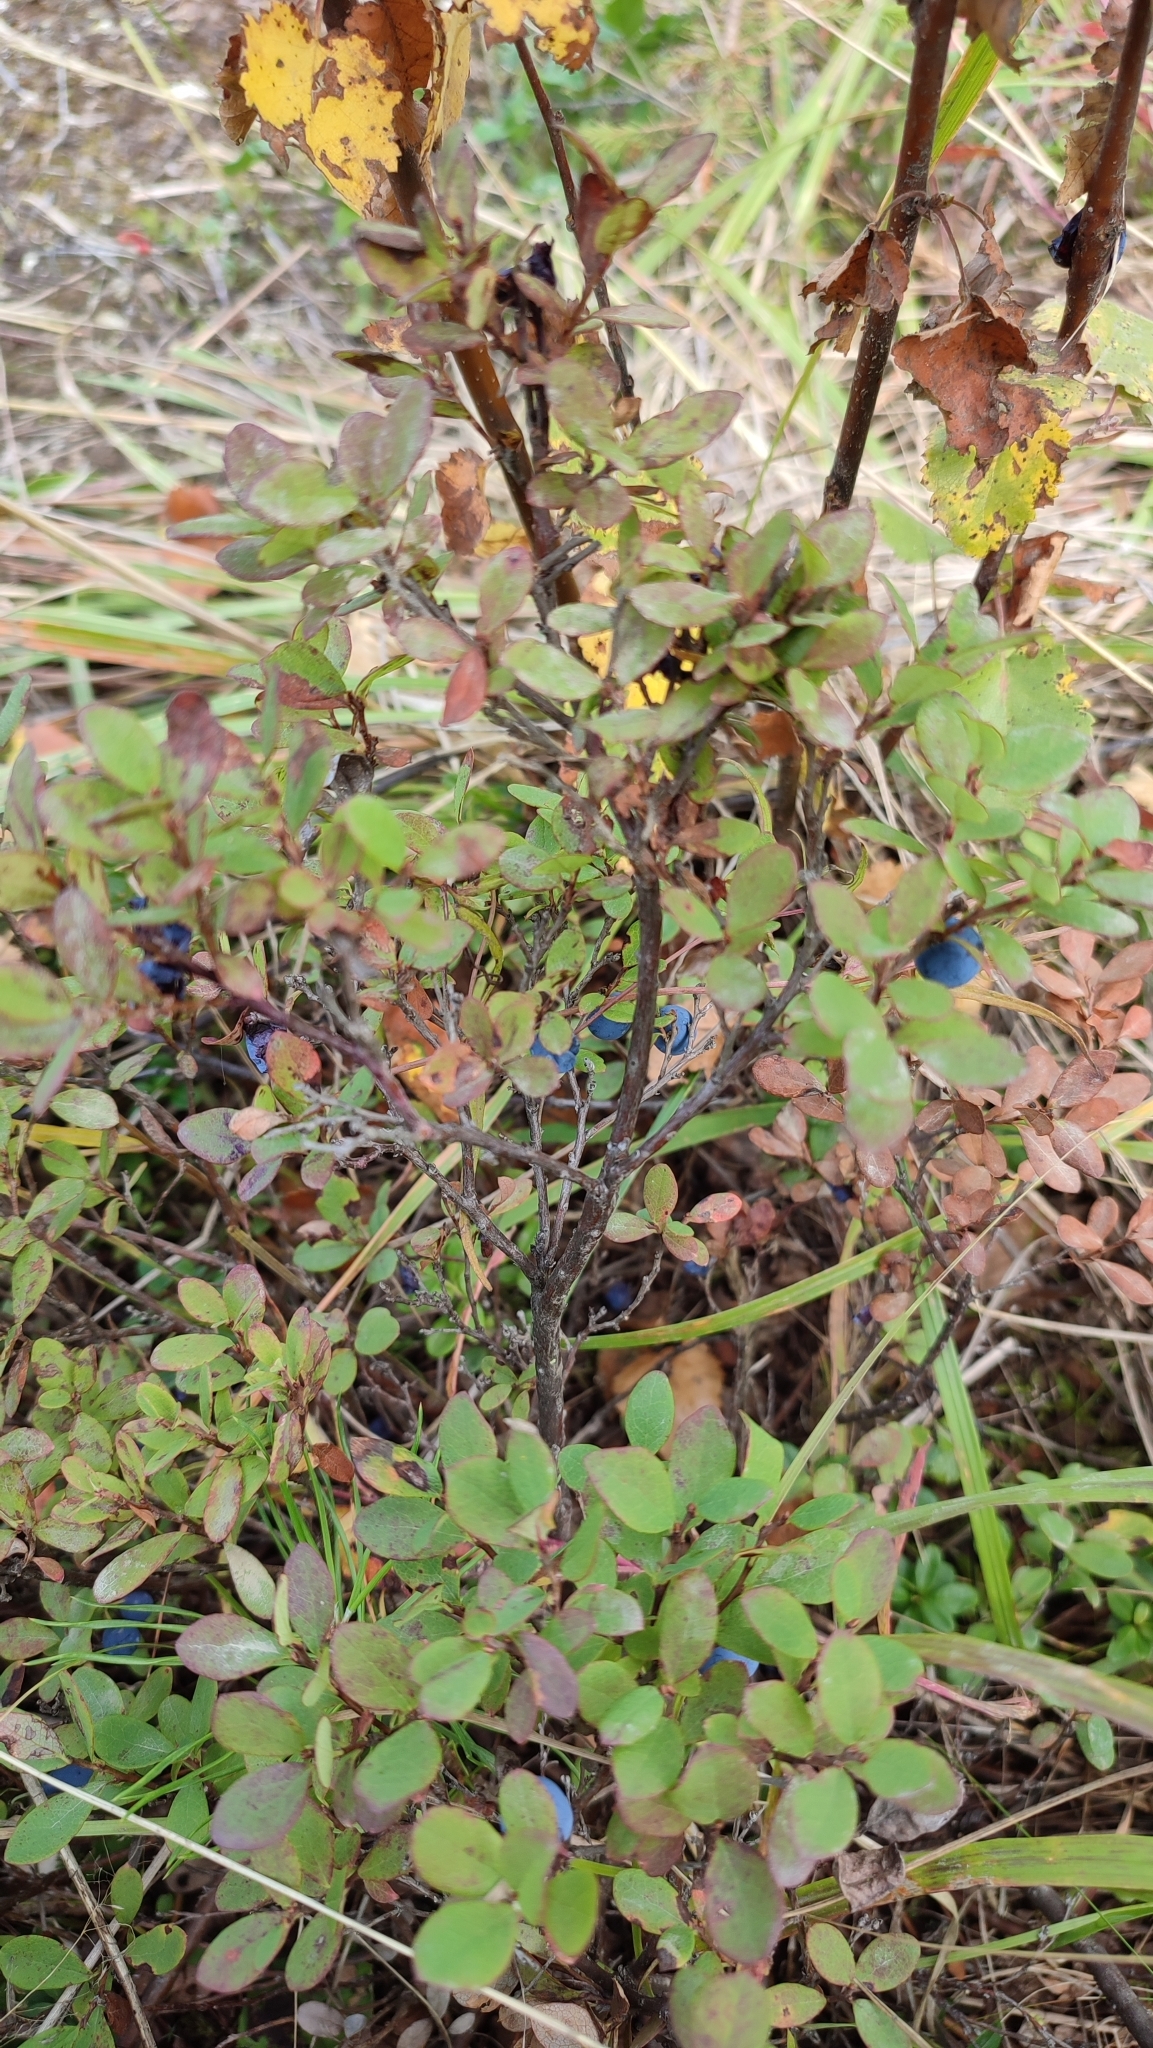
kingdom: Plantae
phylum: Tracheophyta
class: Magnoliopsida
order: Ericales
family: Ericaceae
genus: Vaccinium
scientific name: Vaccinium uliginosum
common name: Bog bilberry
